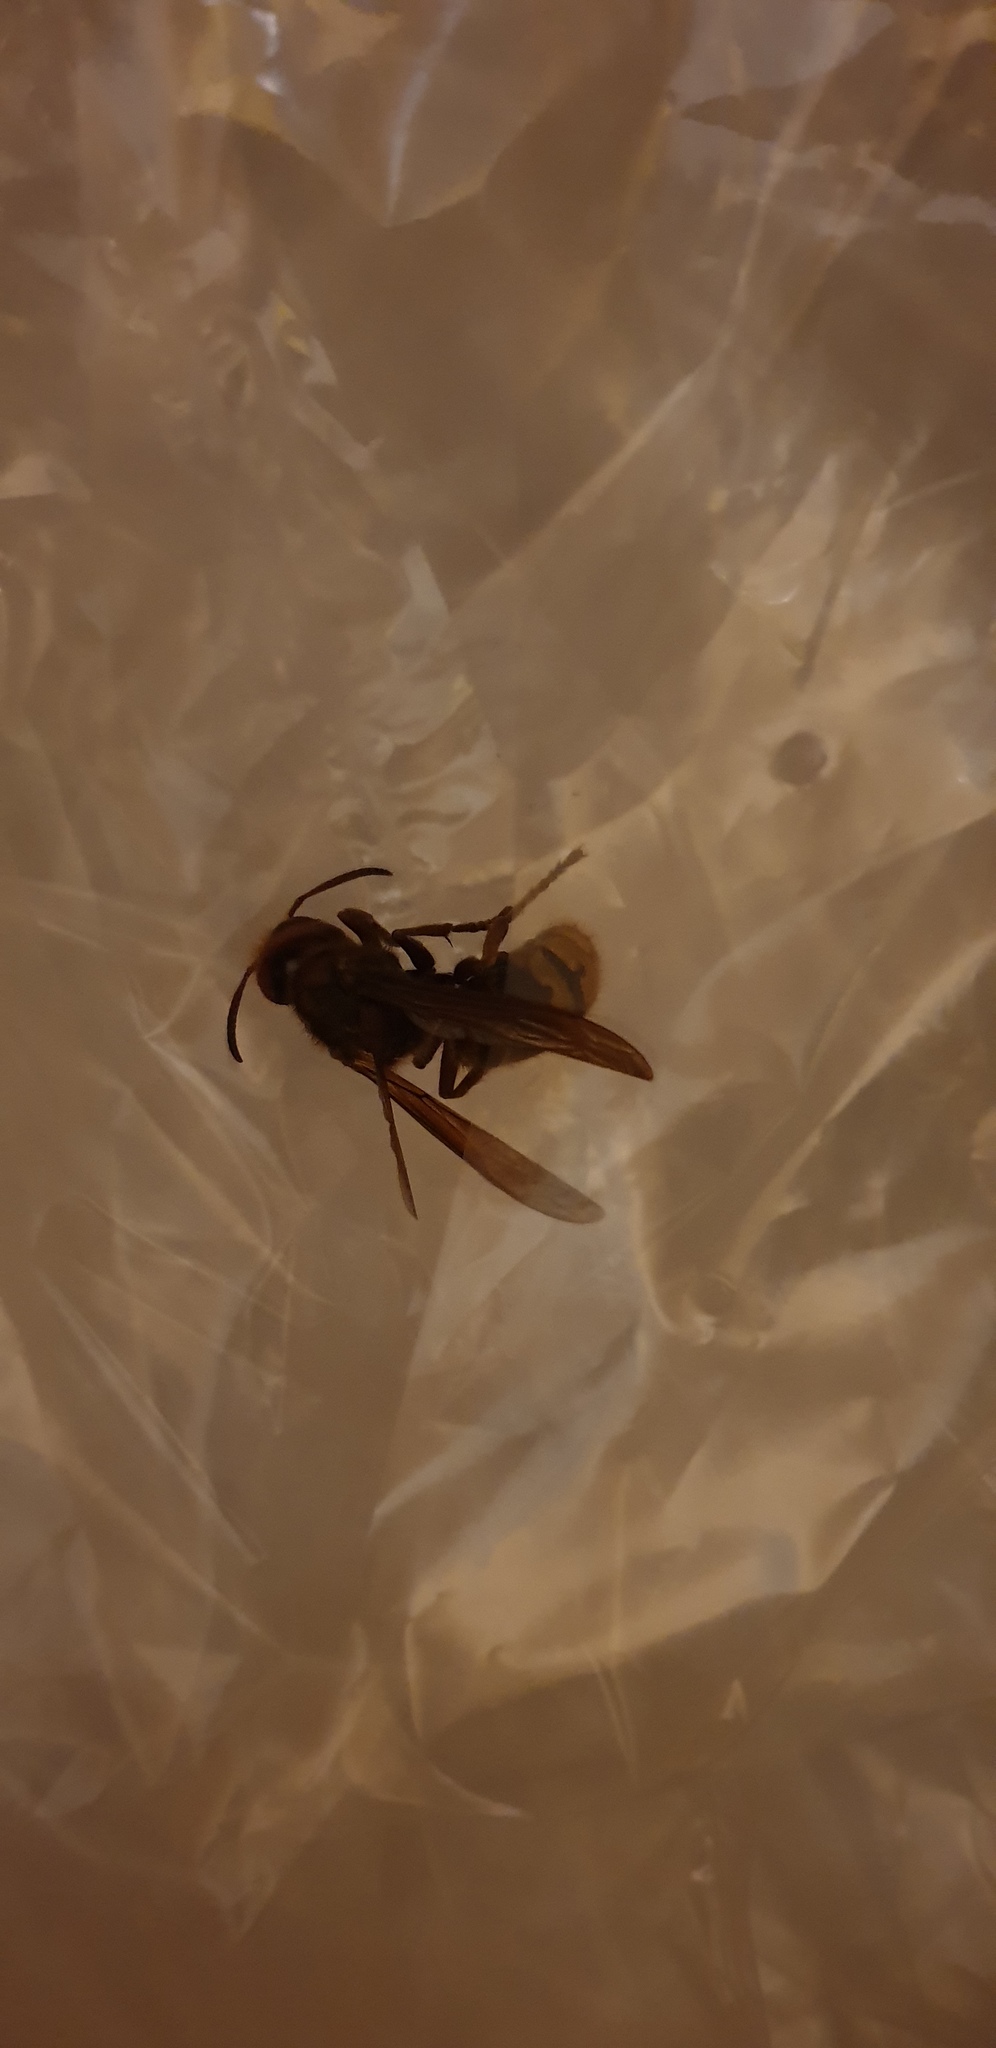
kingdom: Animalia
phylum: Arthropoda
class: Insecta
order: Hymenoptera
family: Vespidae
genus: Vespa
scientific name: Vespa crabro
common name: Hornet
